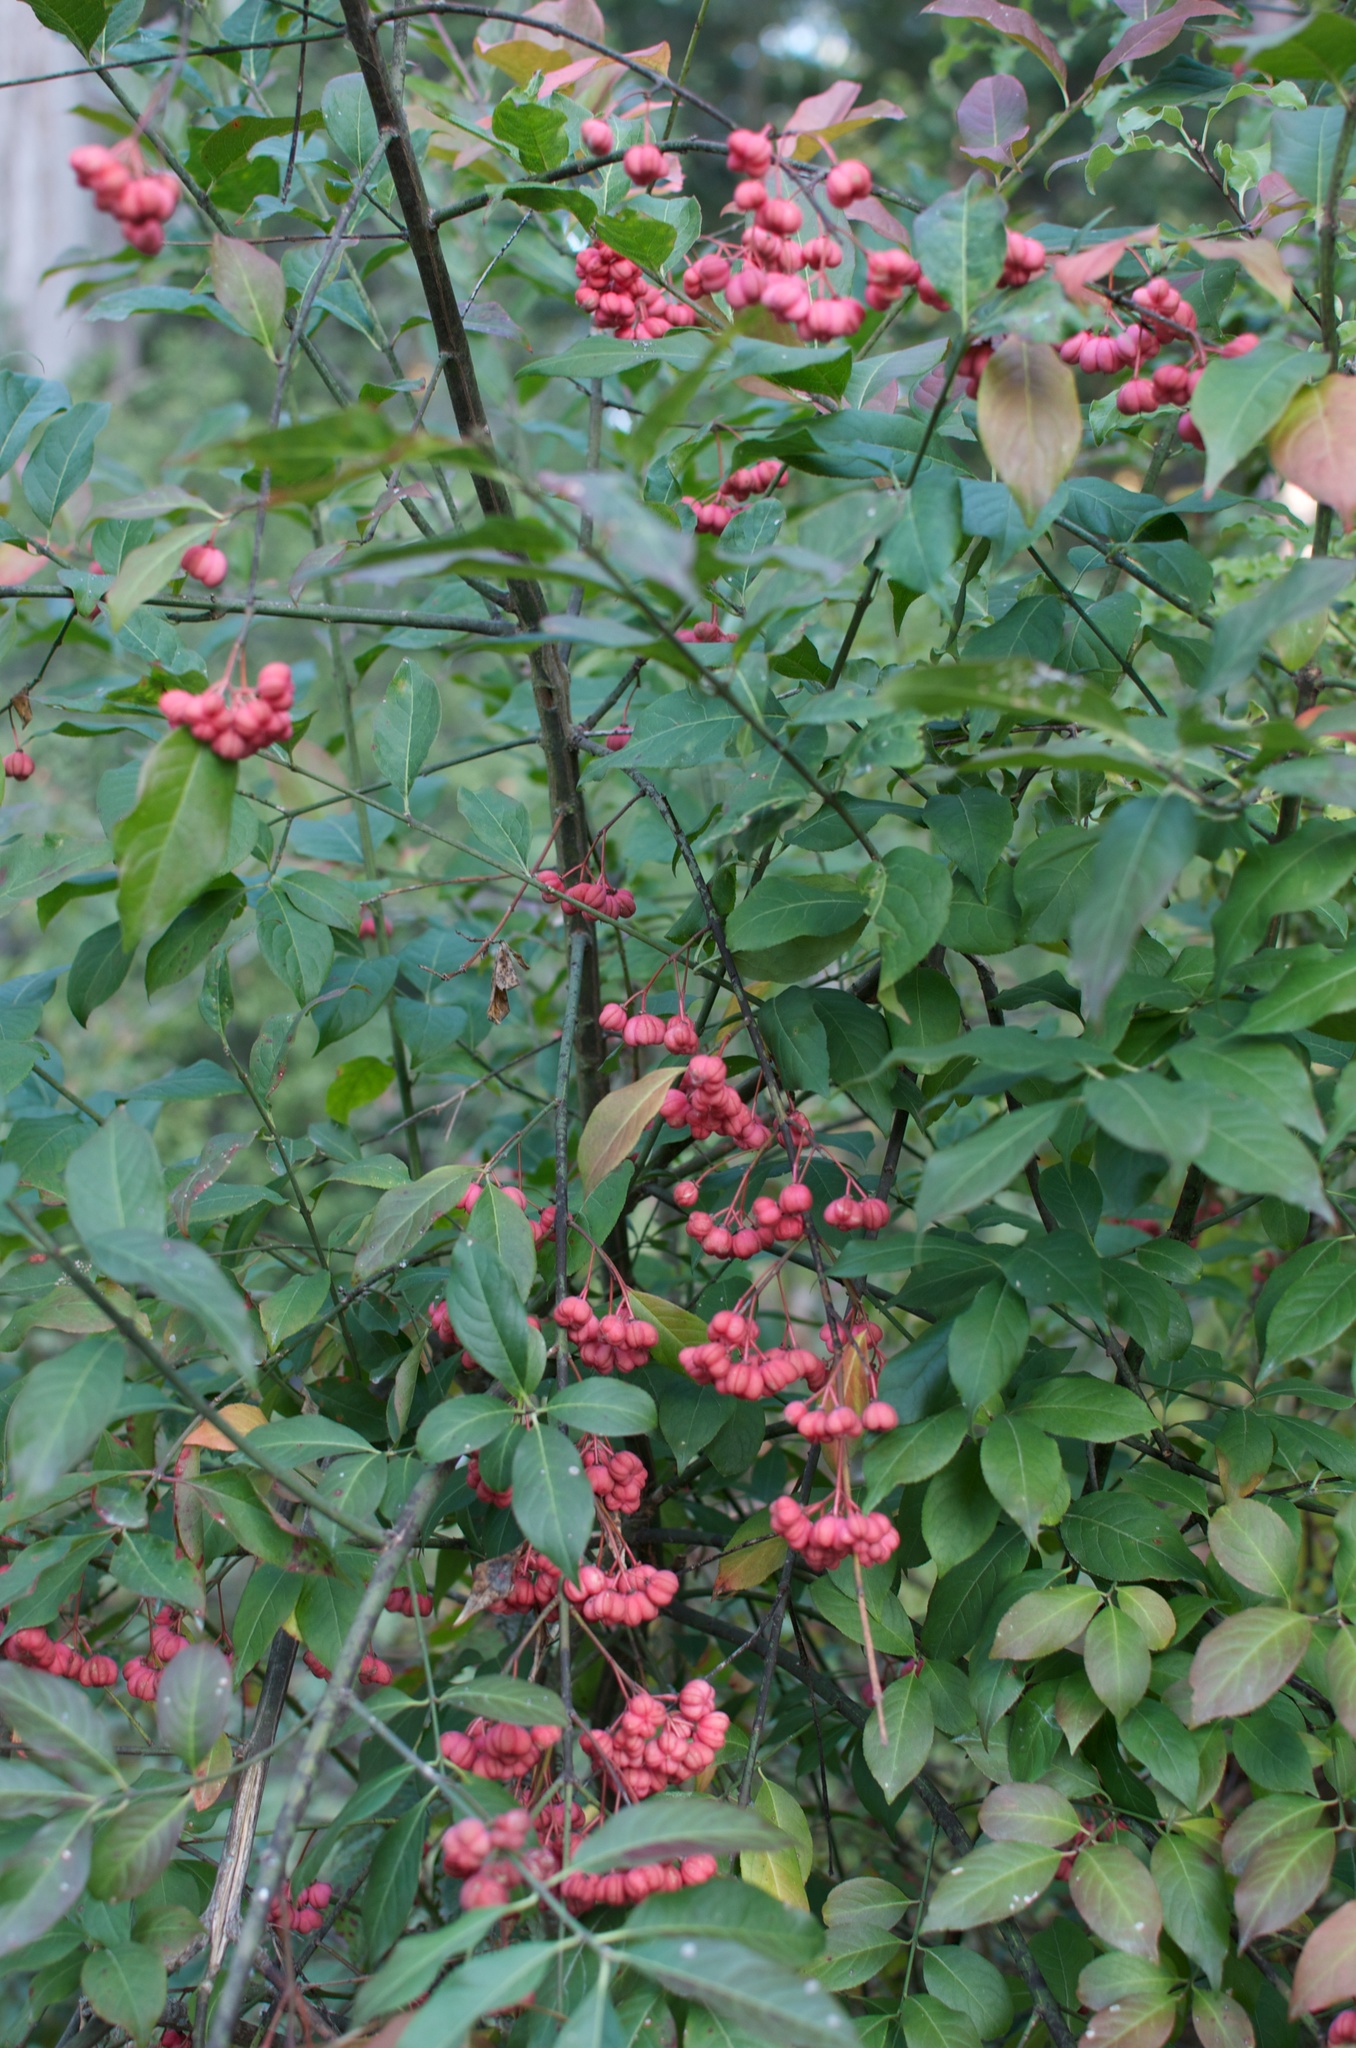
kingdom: Plantae
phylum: Tracheophyta
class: Magnoliopsida
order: Celastrales
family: Celastraceae
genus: Euonymus
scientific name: Euonymus europaeus
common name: Spindle
